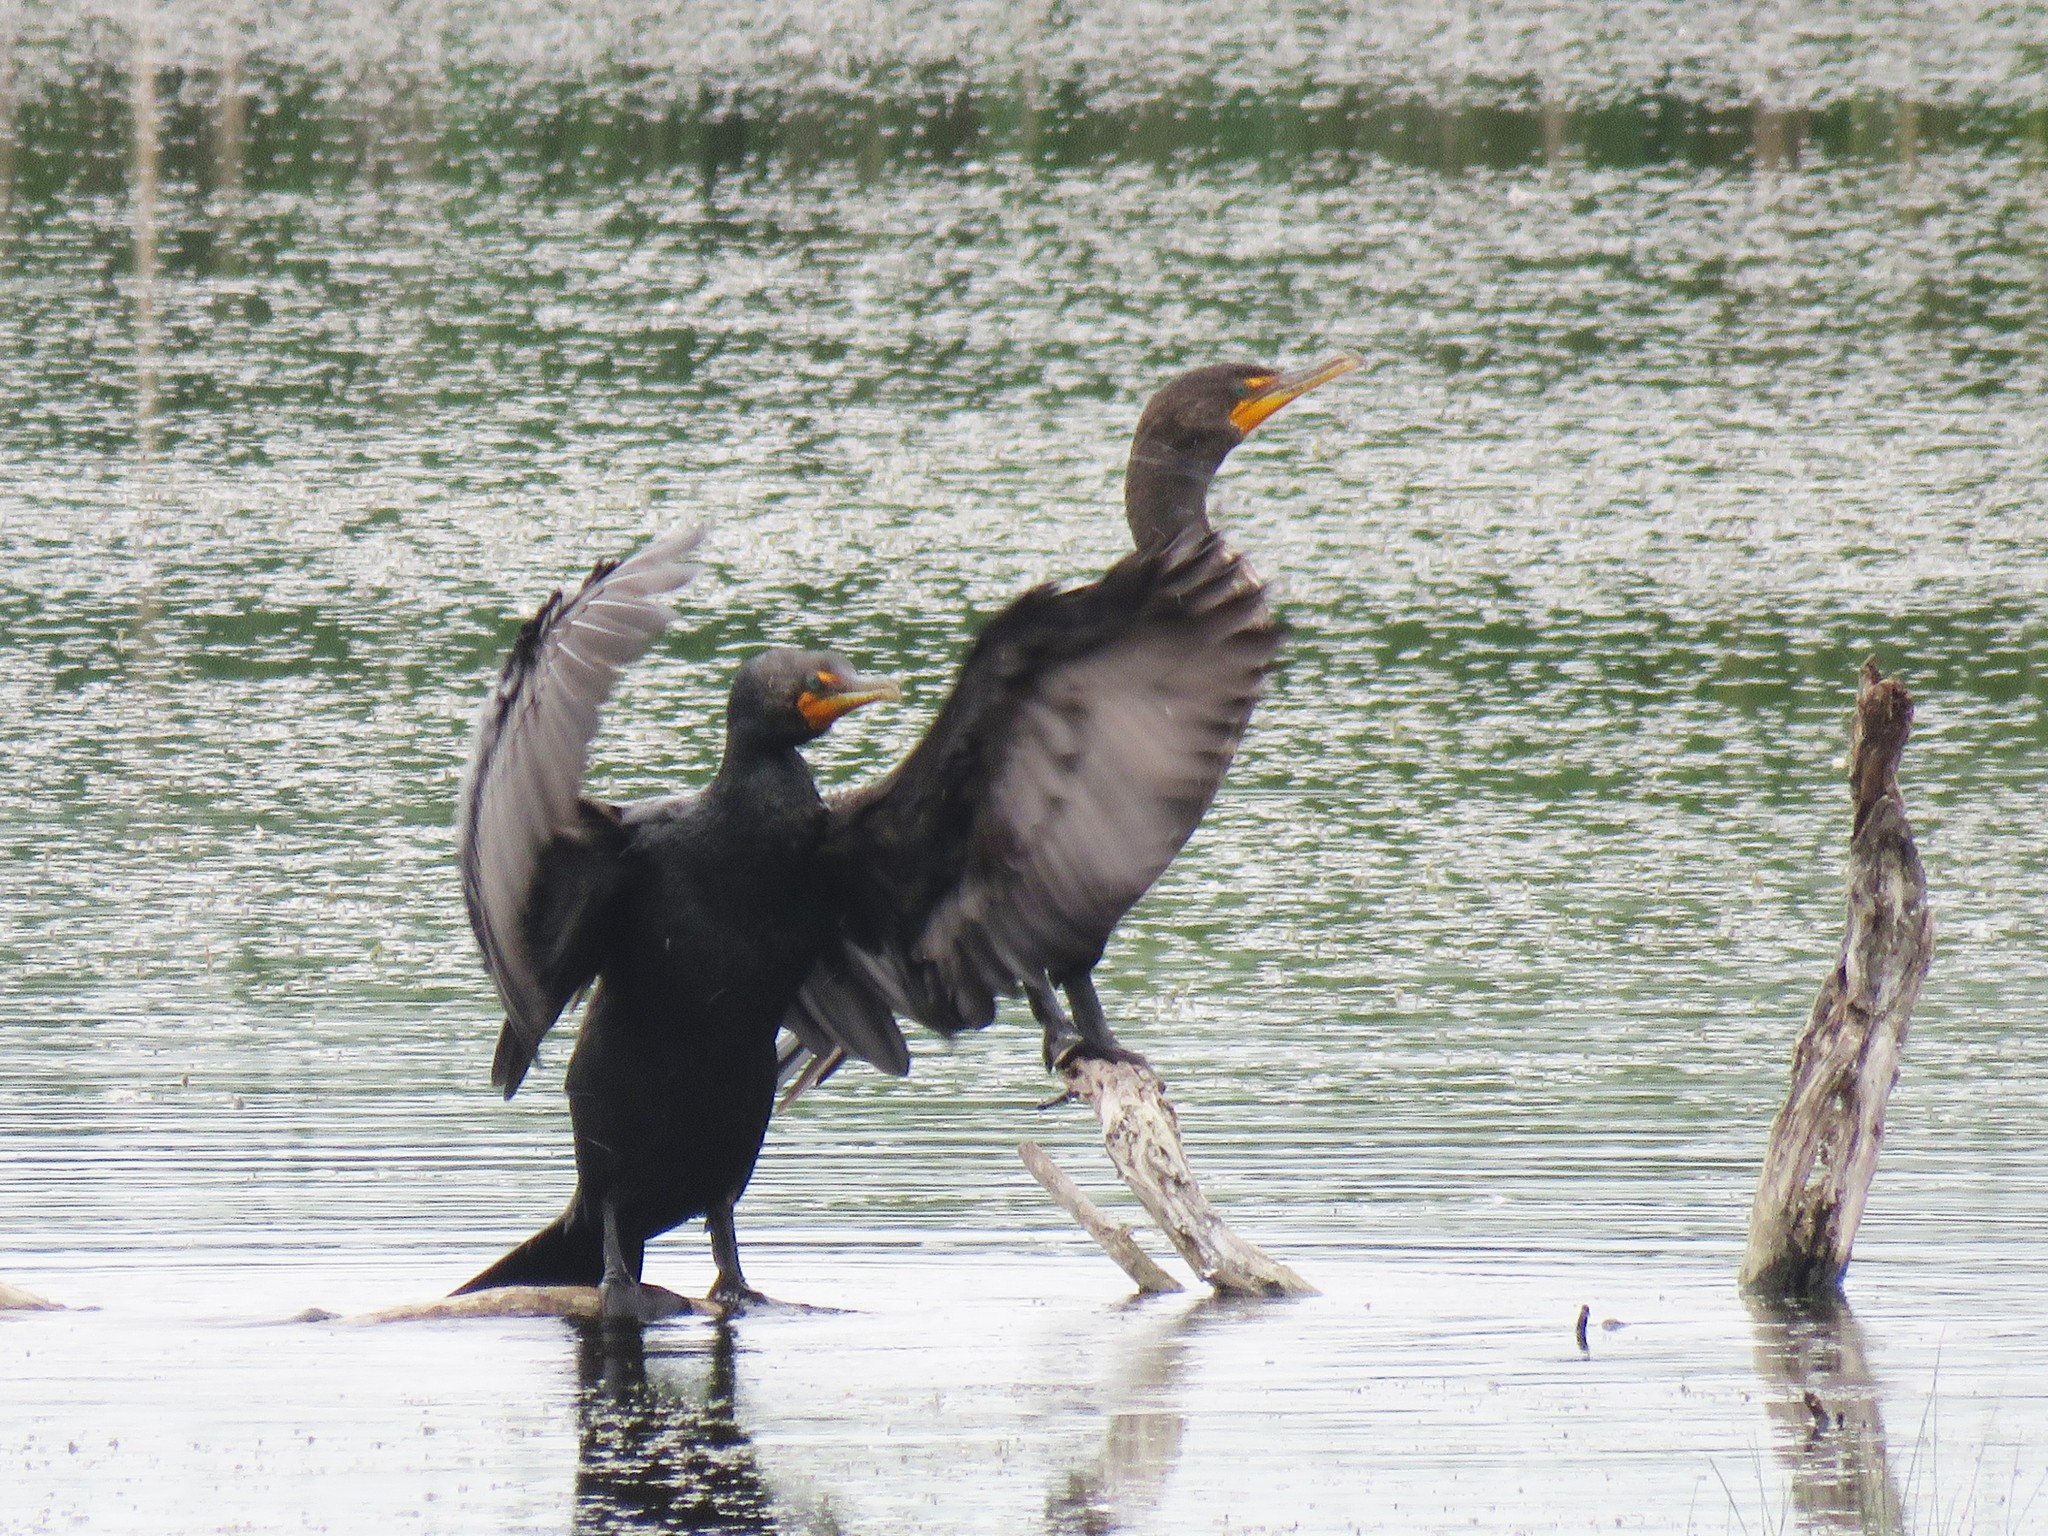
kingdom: Animalia
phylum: Chordata
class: Aves
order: Suliformes
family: Phalacrocoracidae
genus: Phalacrocorax
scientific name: Phalacrocorax auritus
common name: Double-crested cormorant
